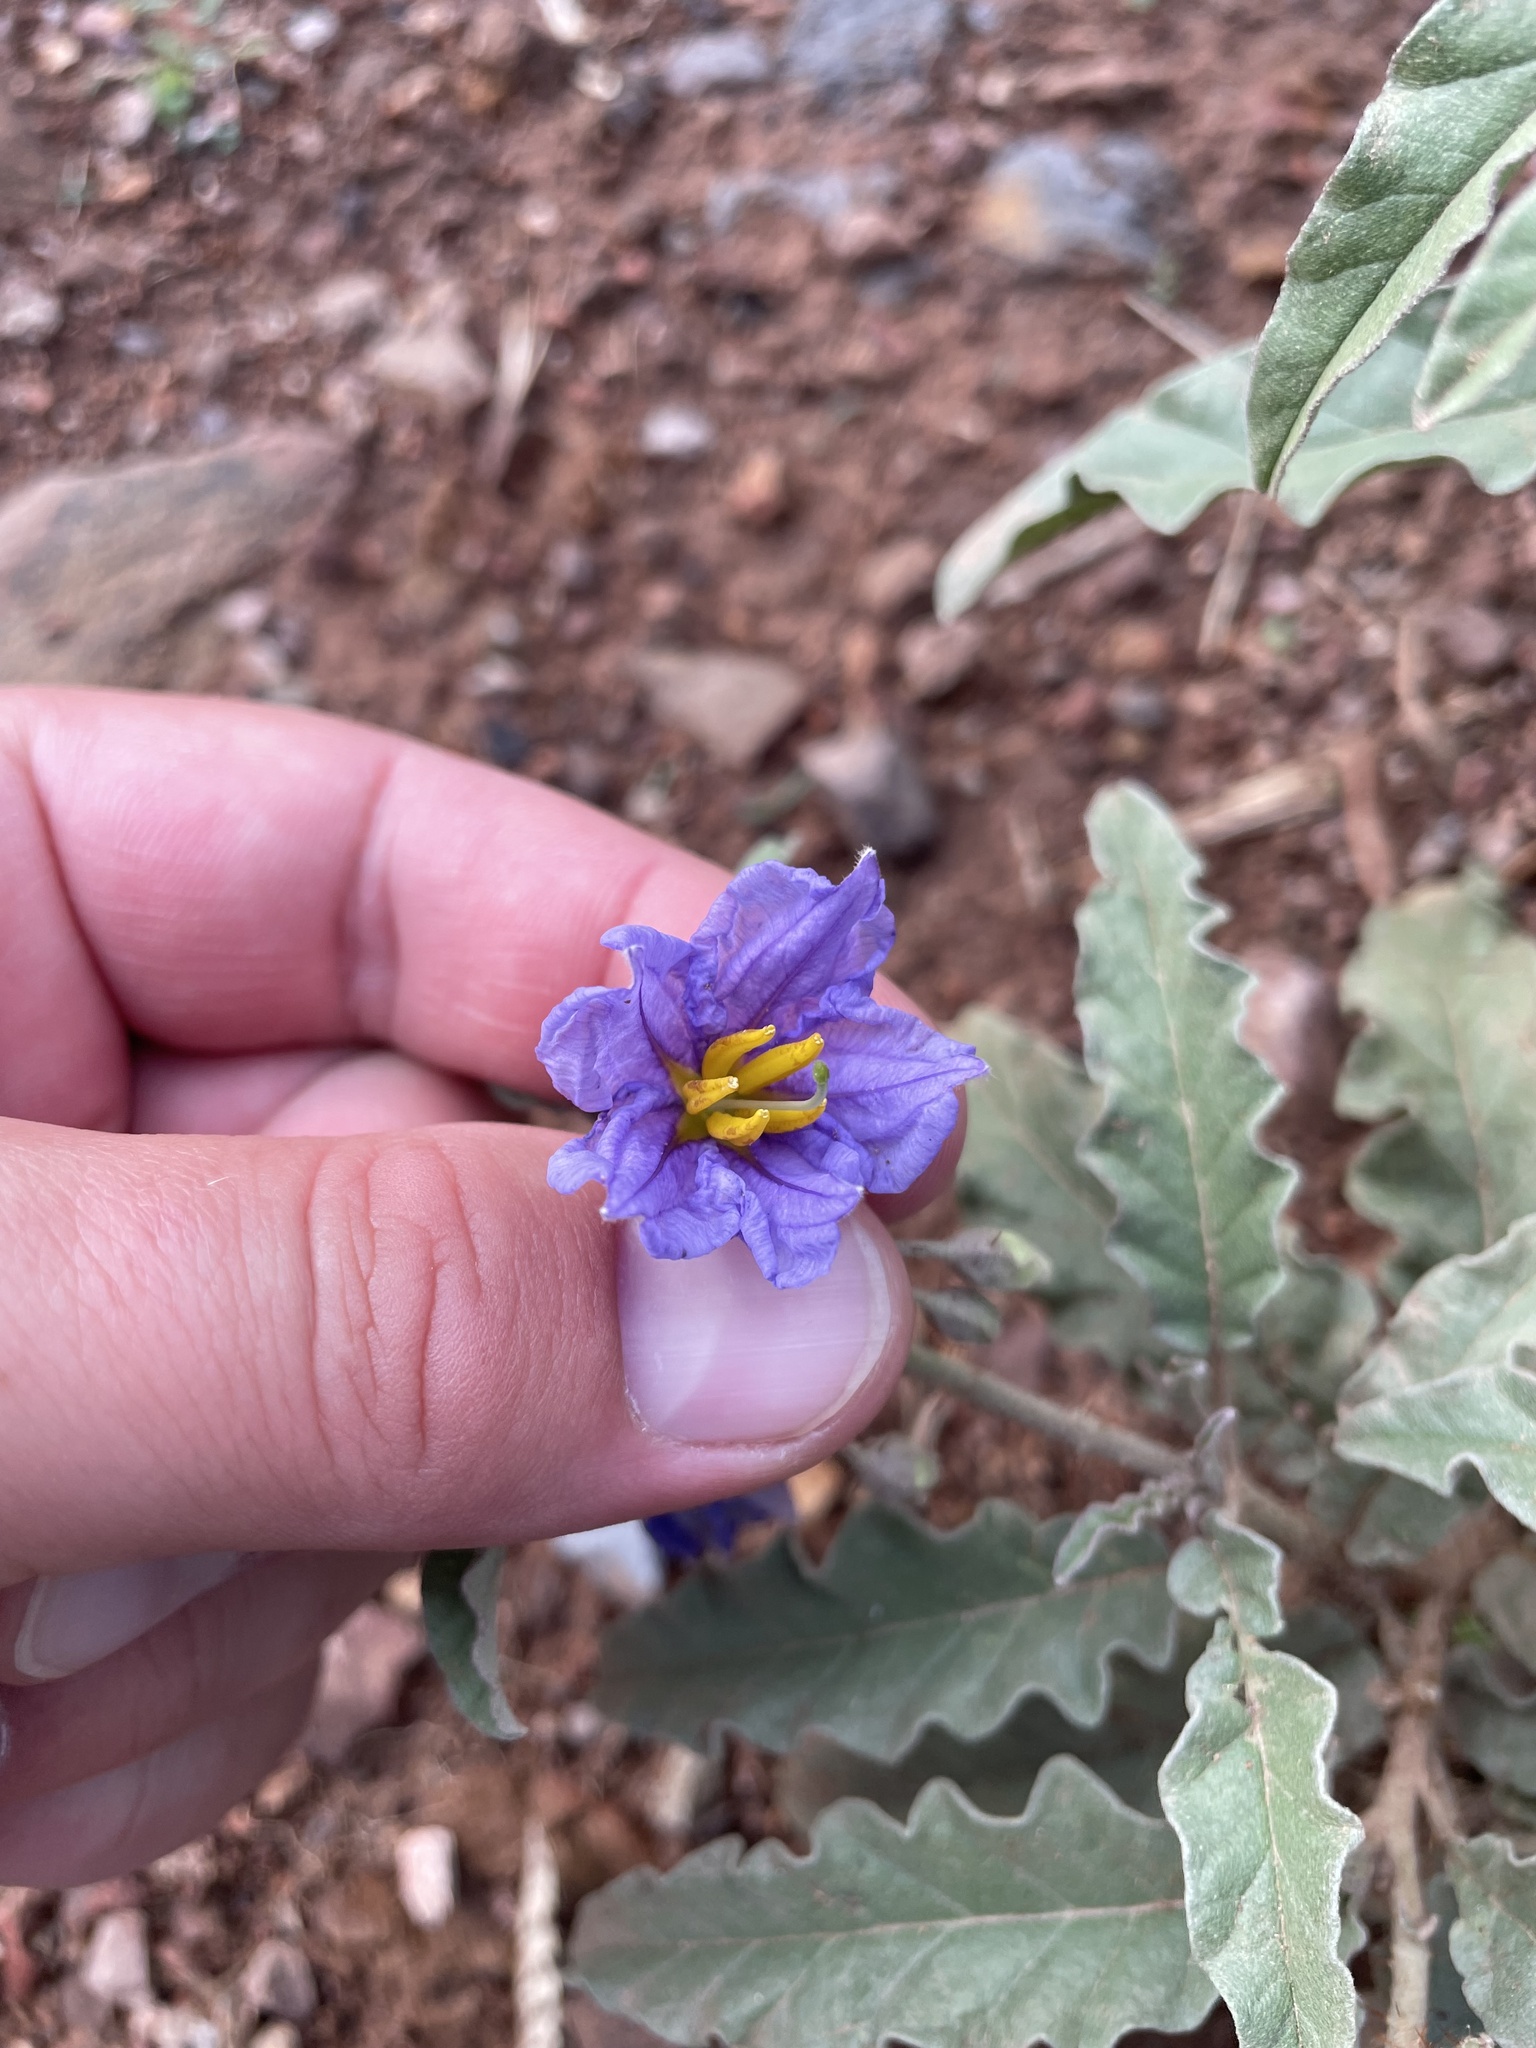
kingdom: Plantae
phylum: Tracheophyta
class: Magnoliopsida
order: Solanales
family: Solanaceae
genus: Solanum
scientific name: Solanum elaeagnifolium
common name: Silverleaf nightshade
